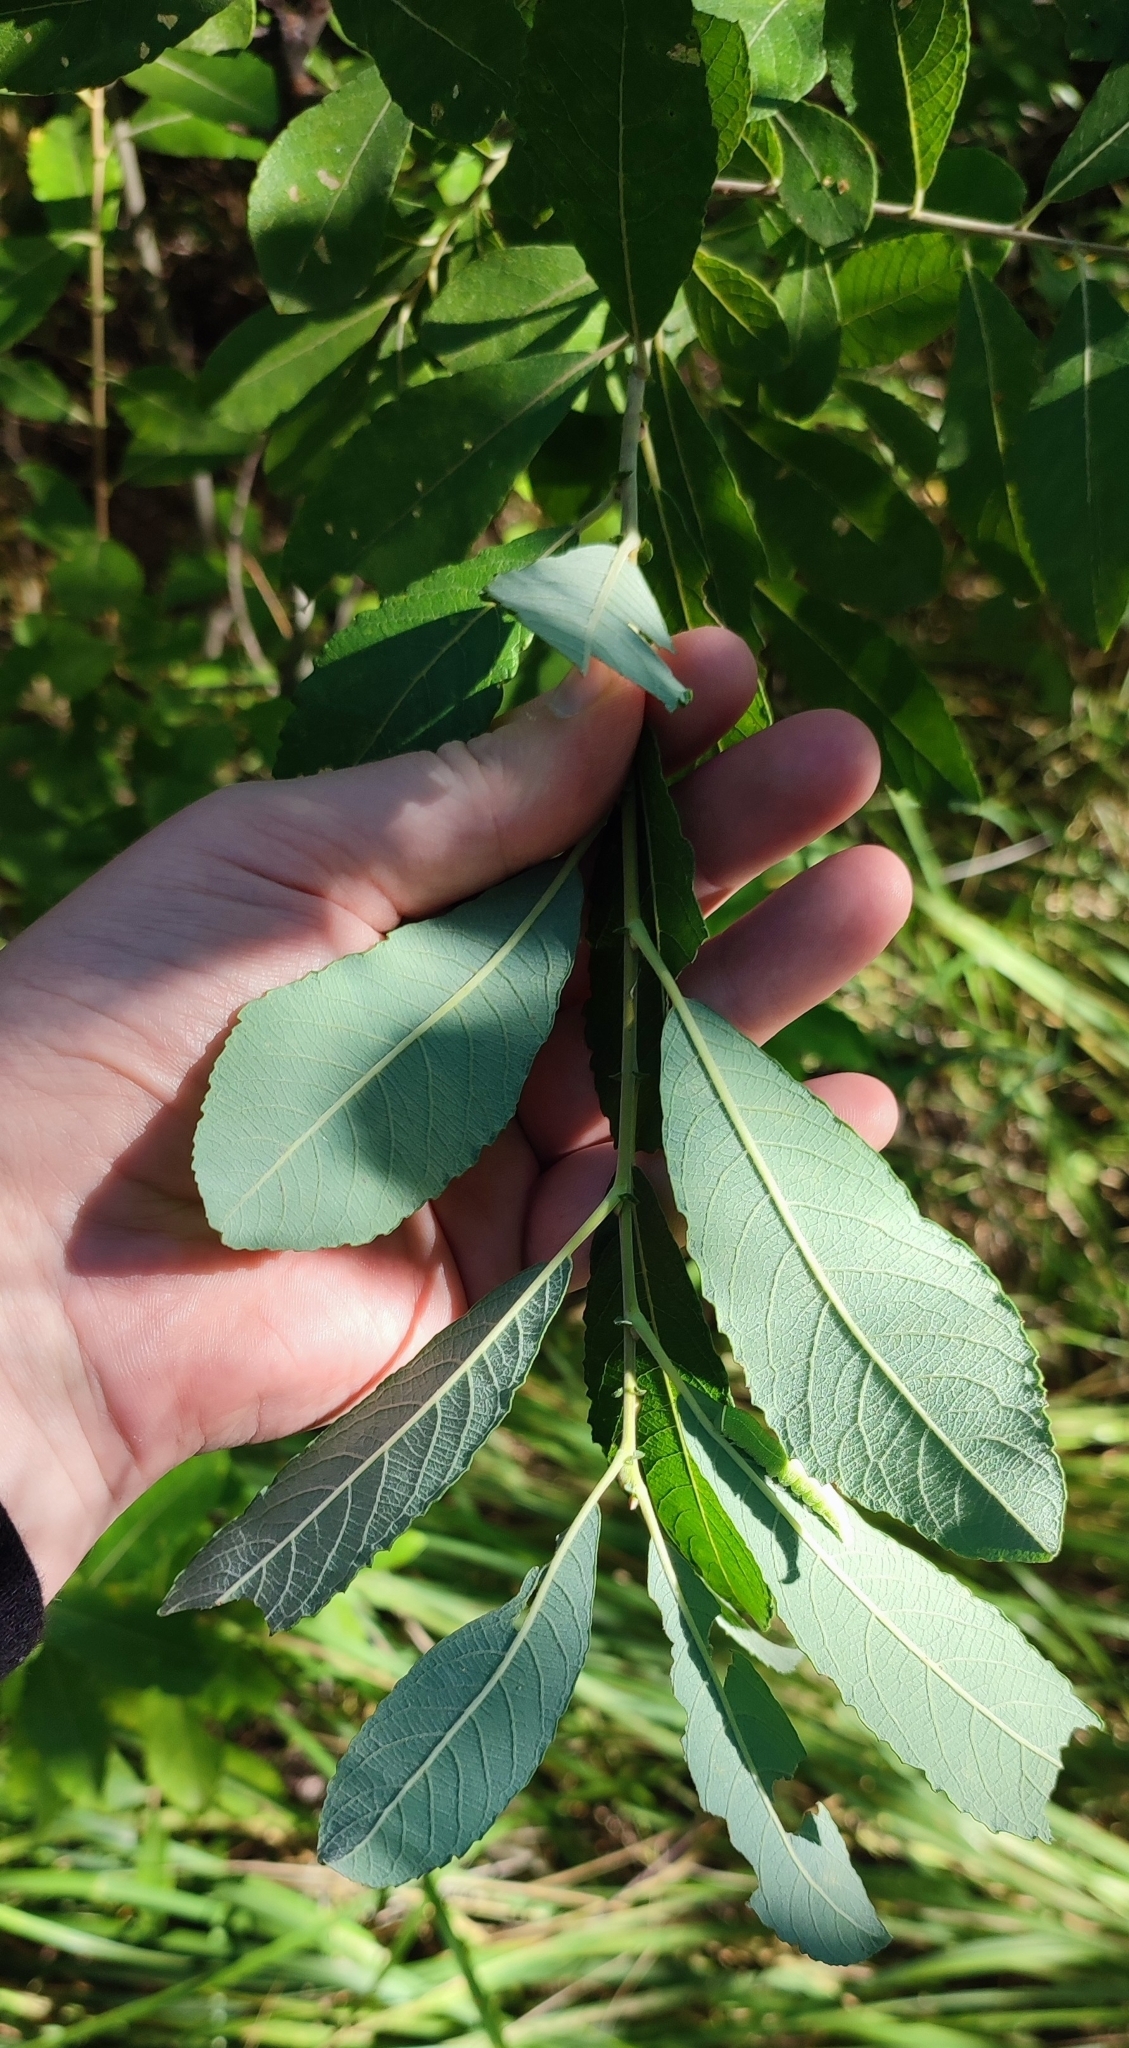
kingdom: Plantae
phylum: Tracheophyta
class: Magnoliopsida
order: Malpighiales
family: Salicaceae
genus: Salix
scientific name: Salix cinerea
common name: Common sallow
